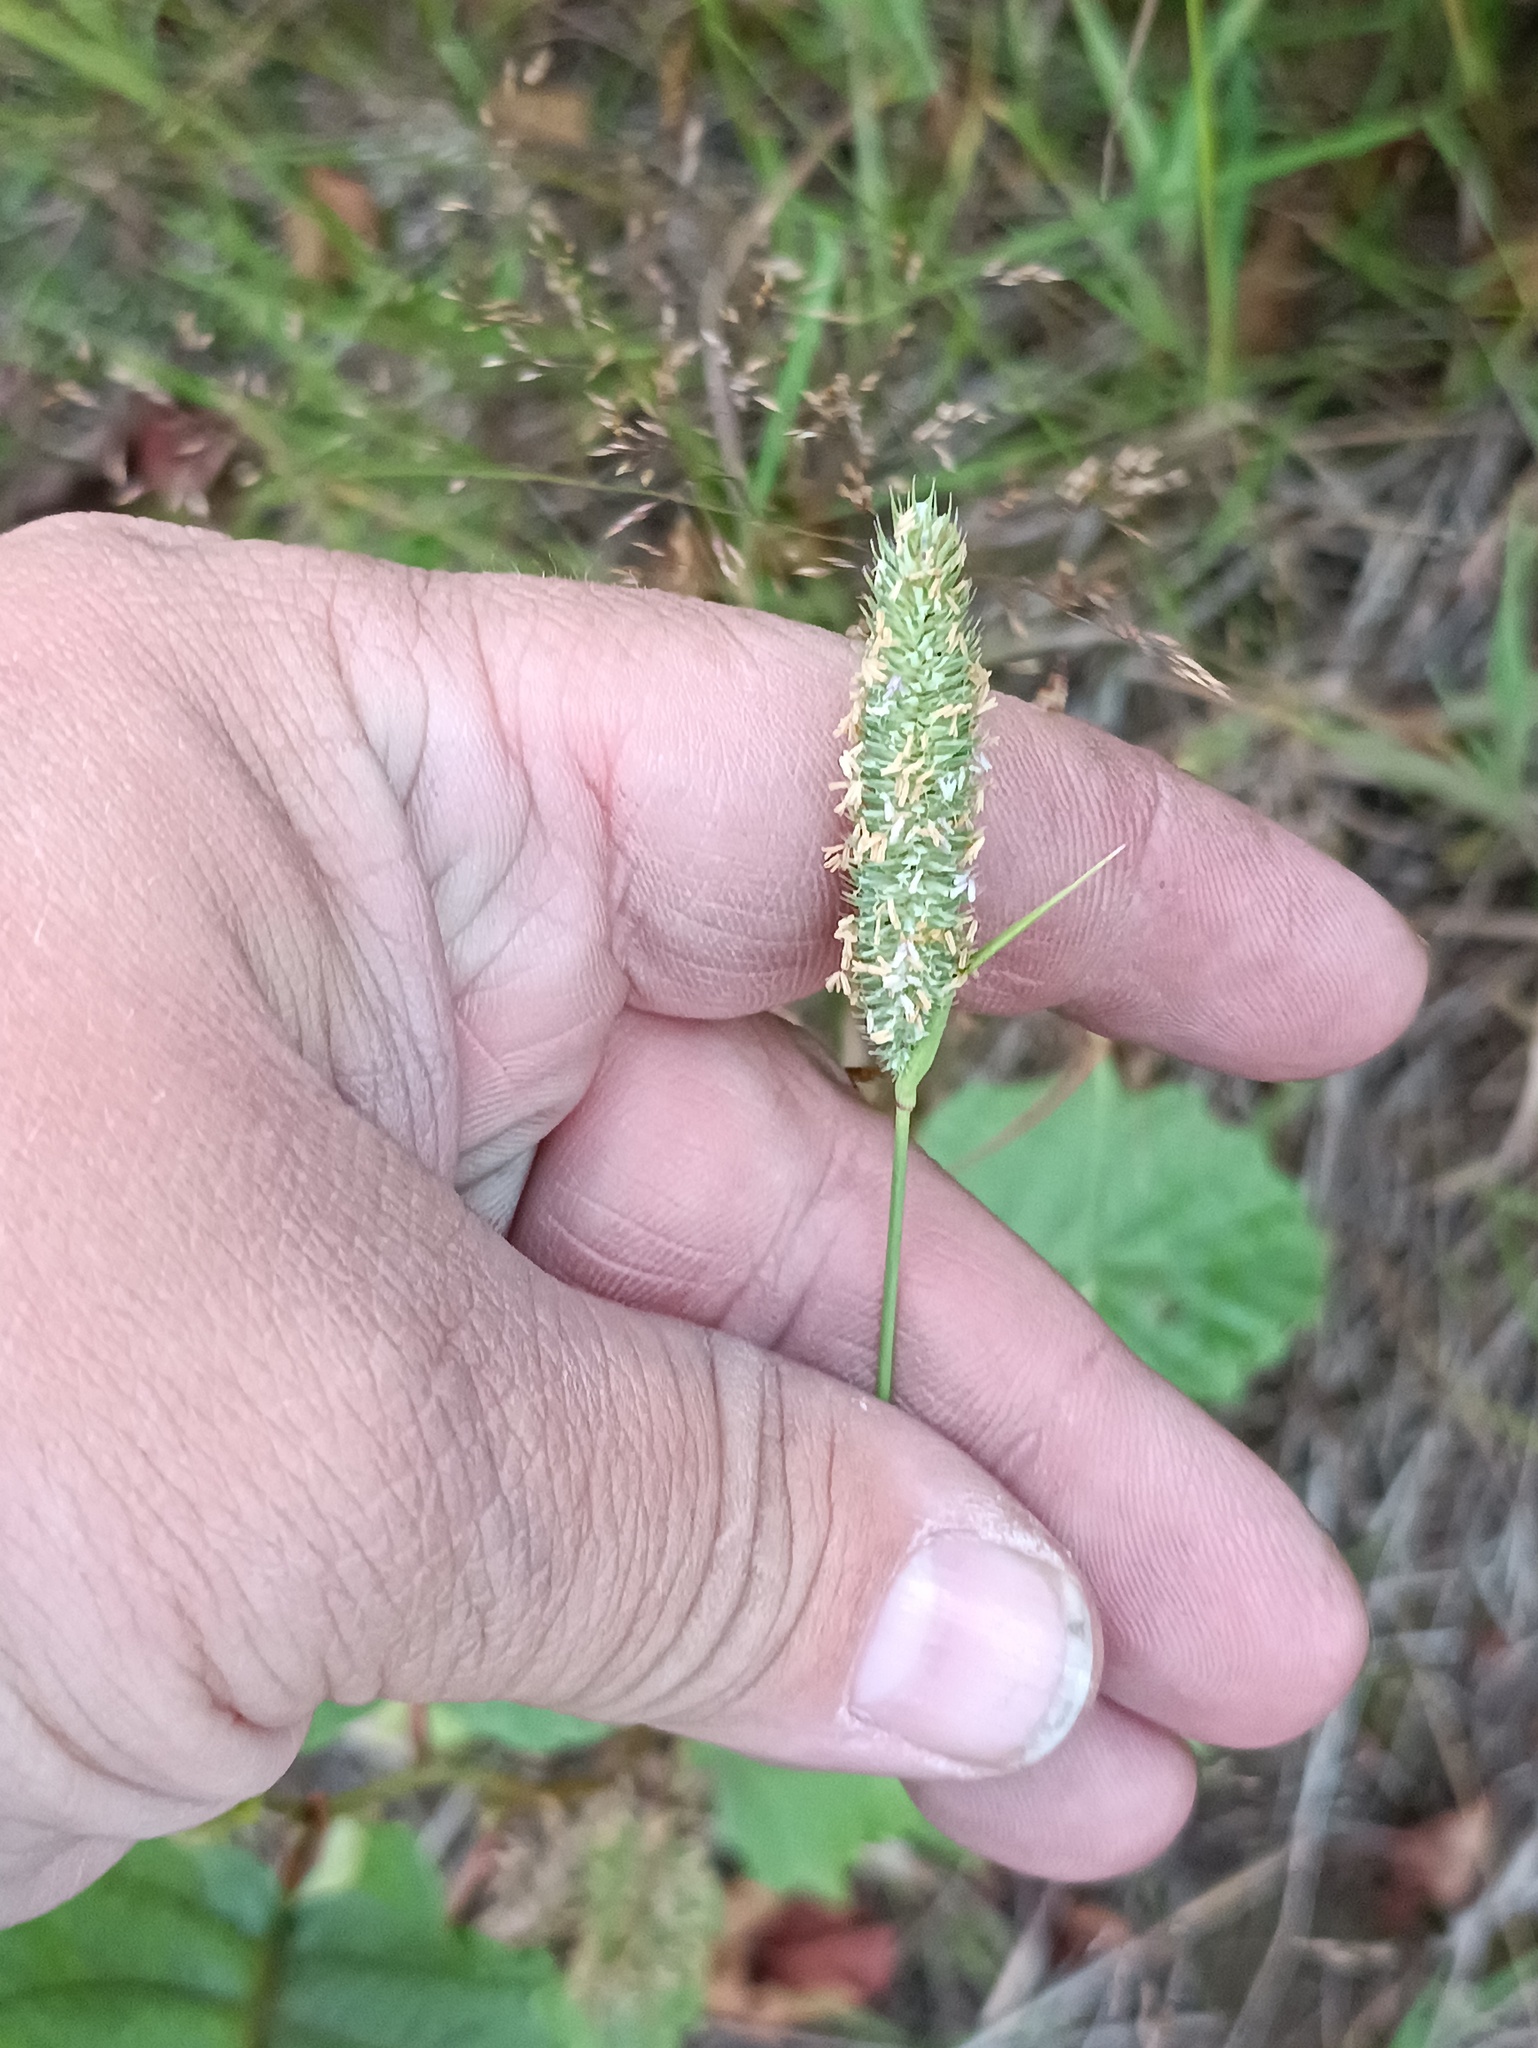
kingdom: Plantae
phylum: Tracheophyta
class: Liliopsida
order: Poales
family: Poaceae
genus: Phleum
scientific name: Phleum pratense
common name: Timothy grass
